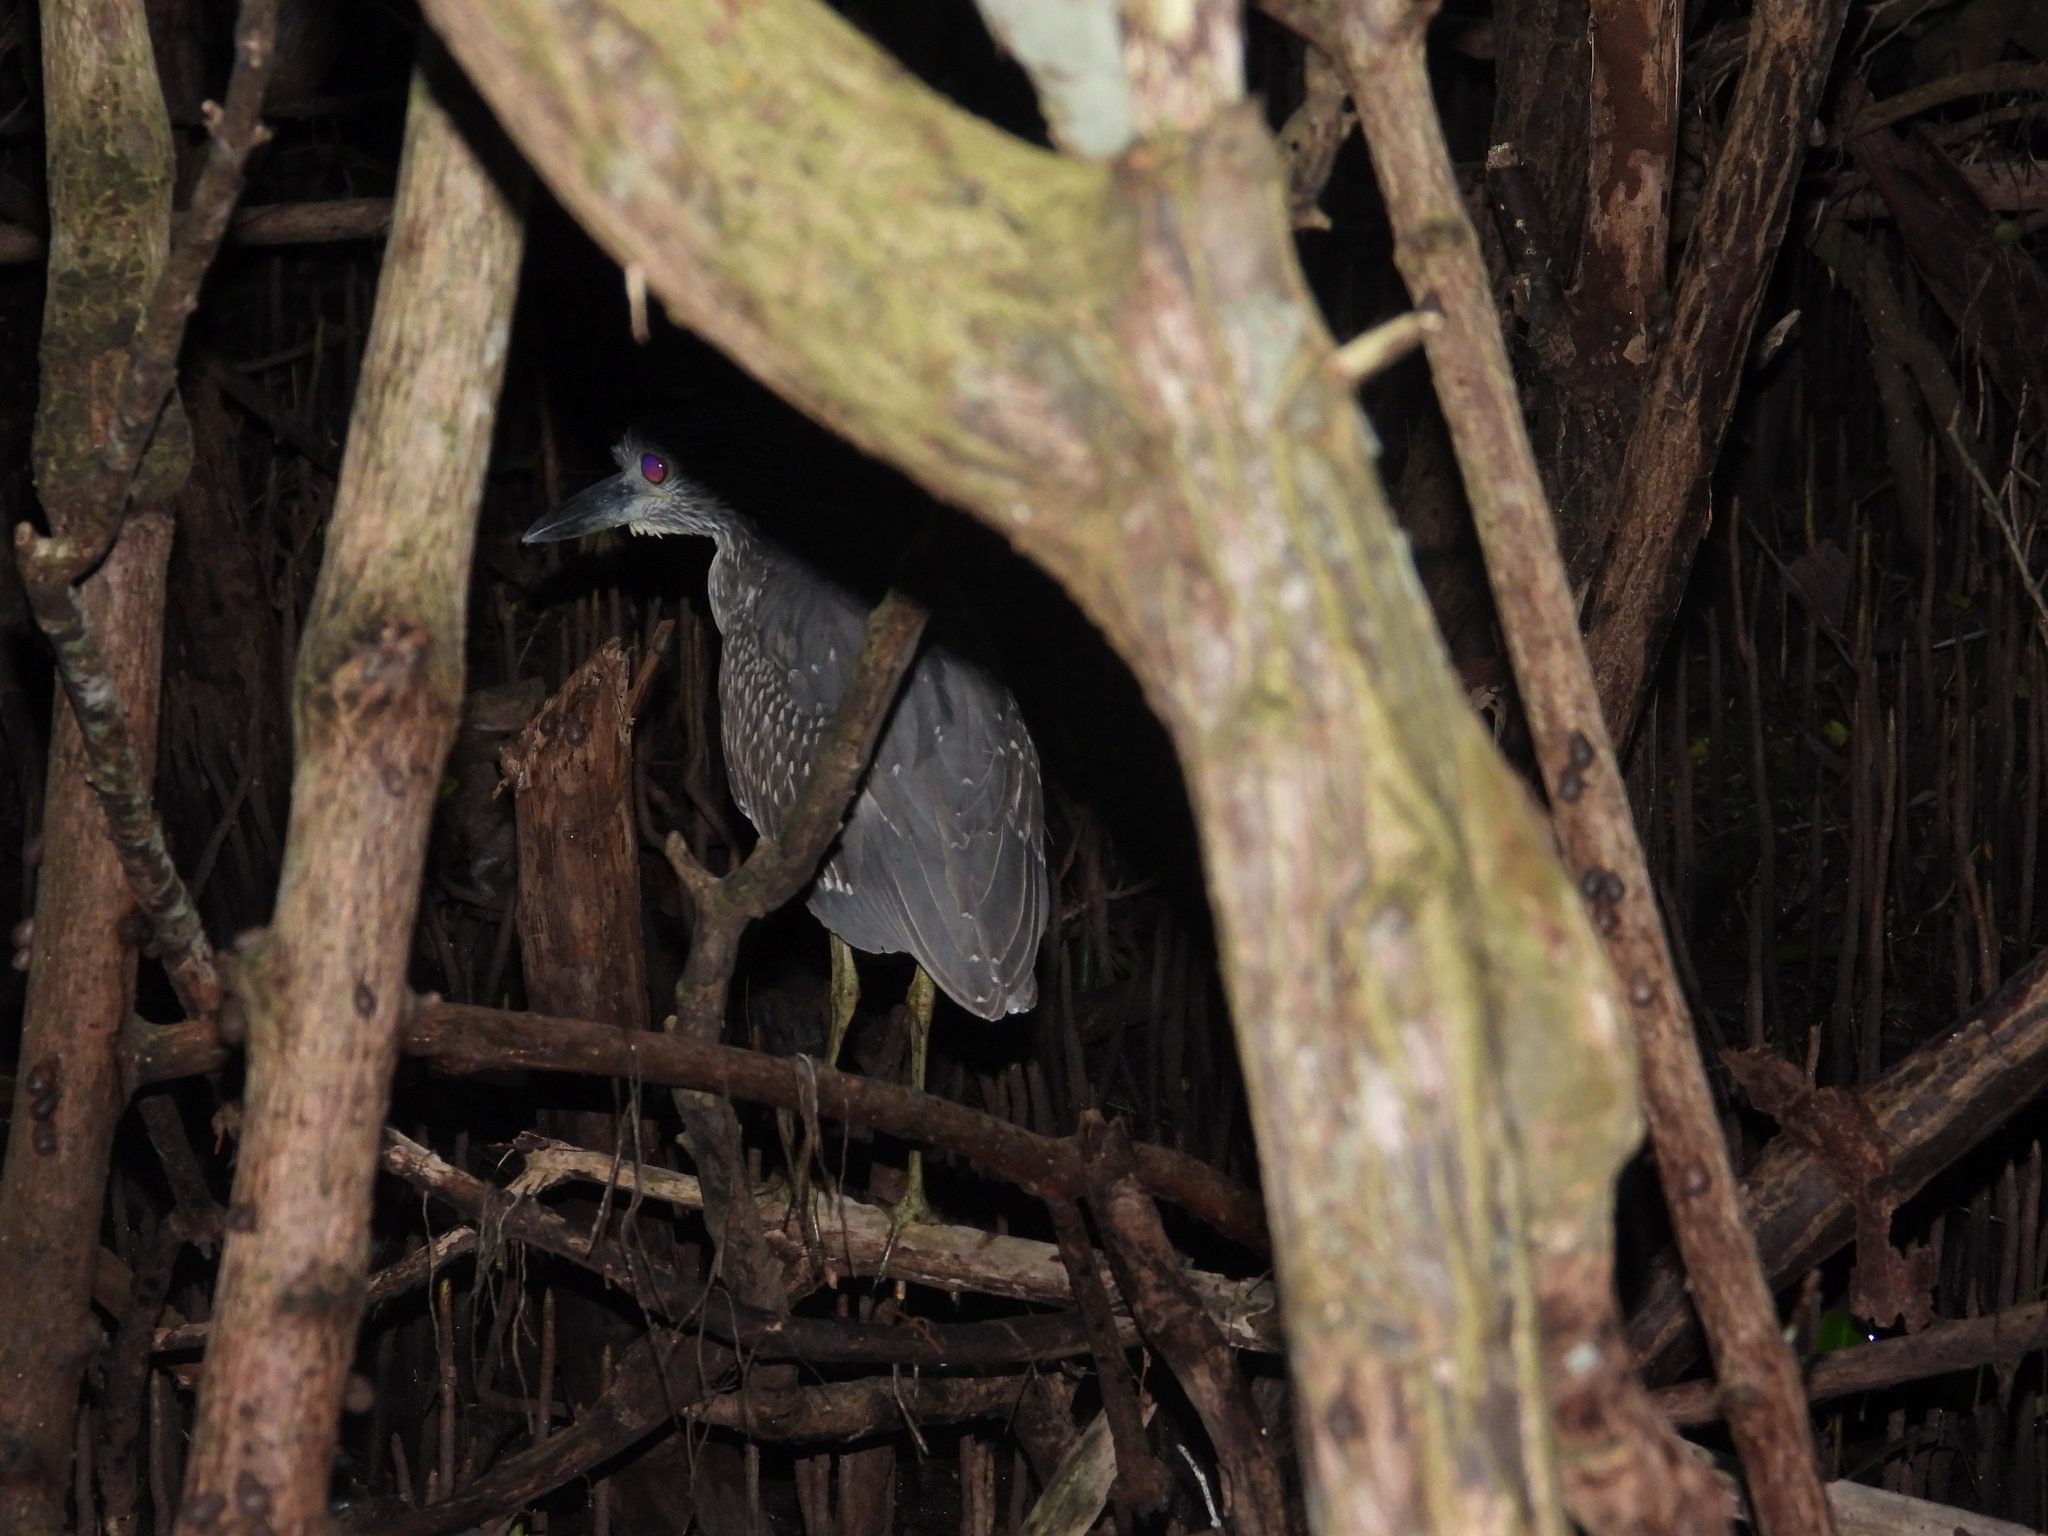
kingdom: Animalia
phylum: Chordata
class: Aves
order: Pelecaniformes
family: Ardeidae
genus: Nyctanassa
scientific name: Nyctanassa violacea
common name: Yellow-crowned night heron
